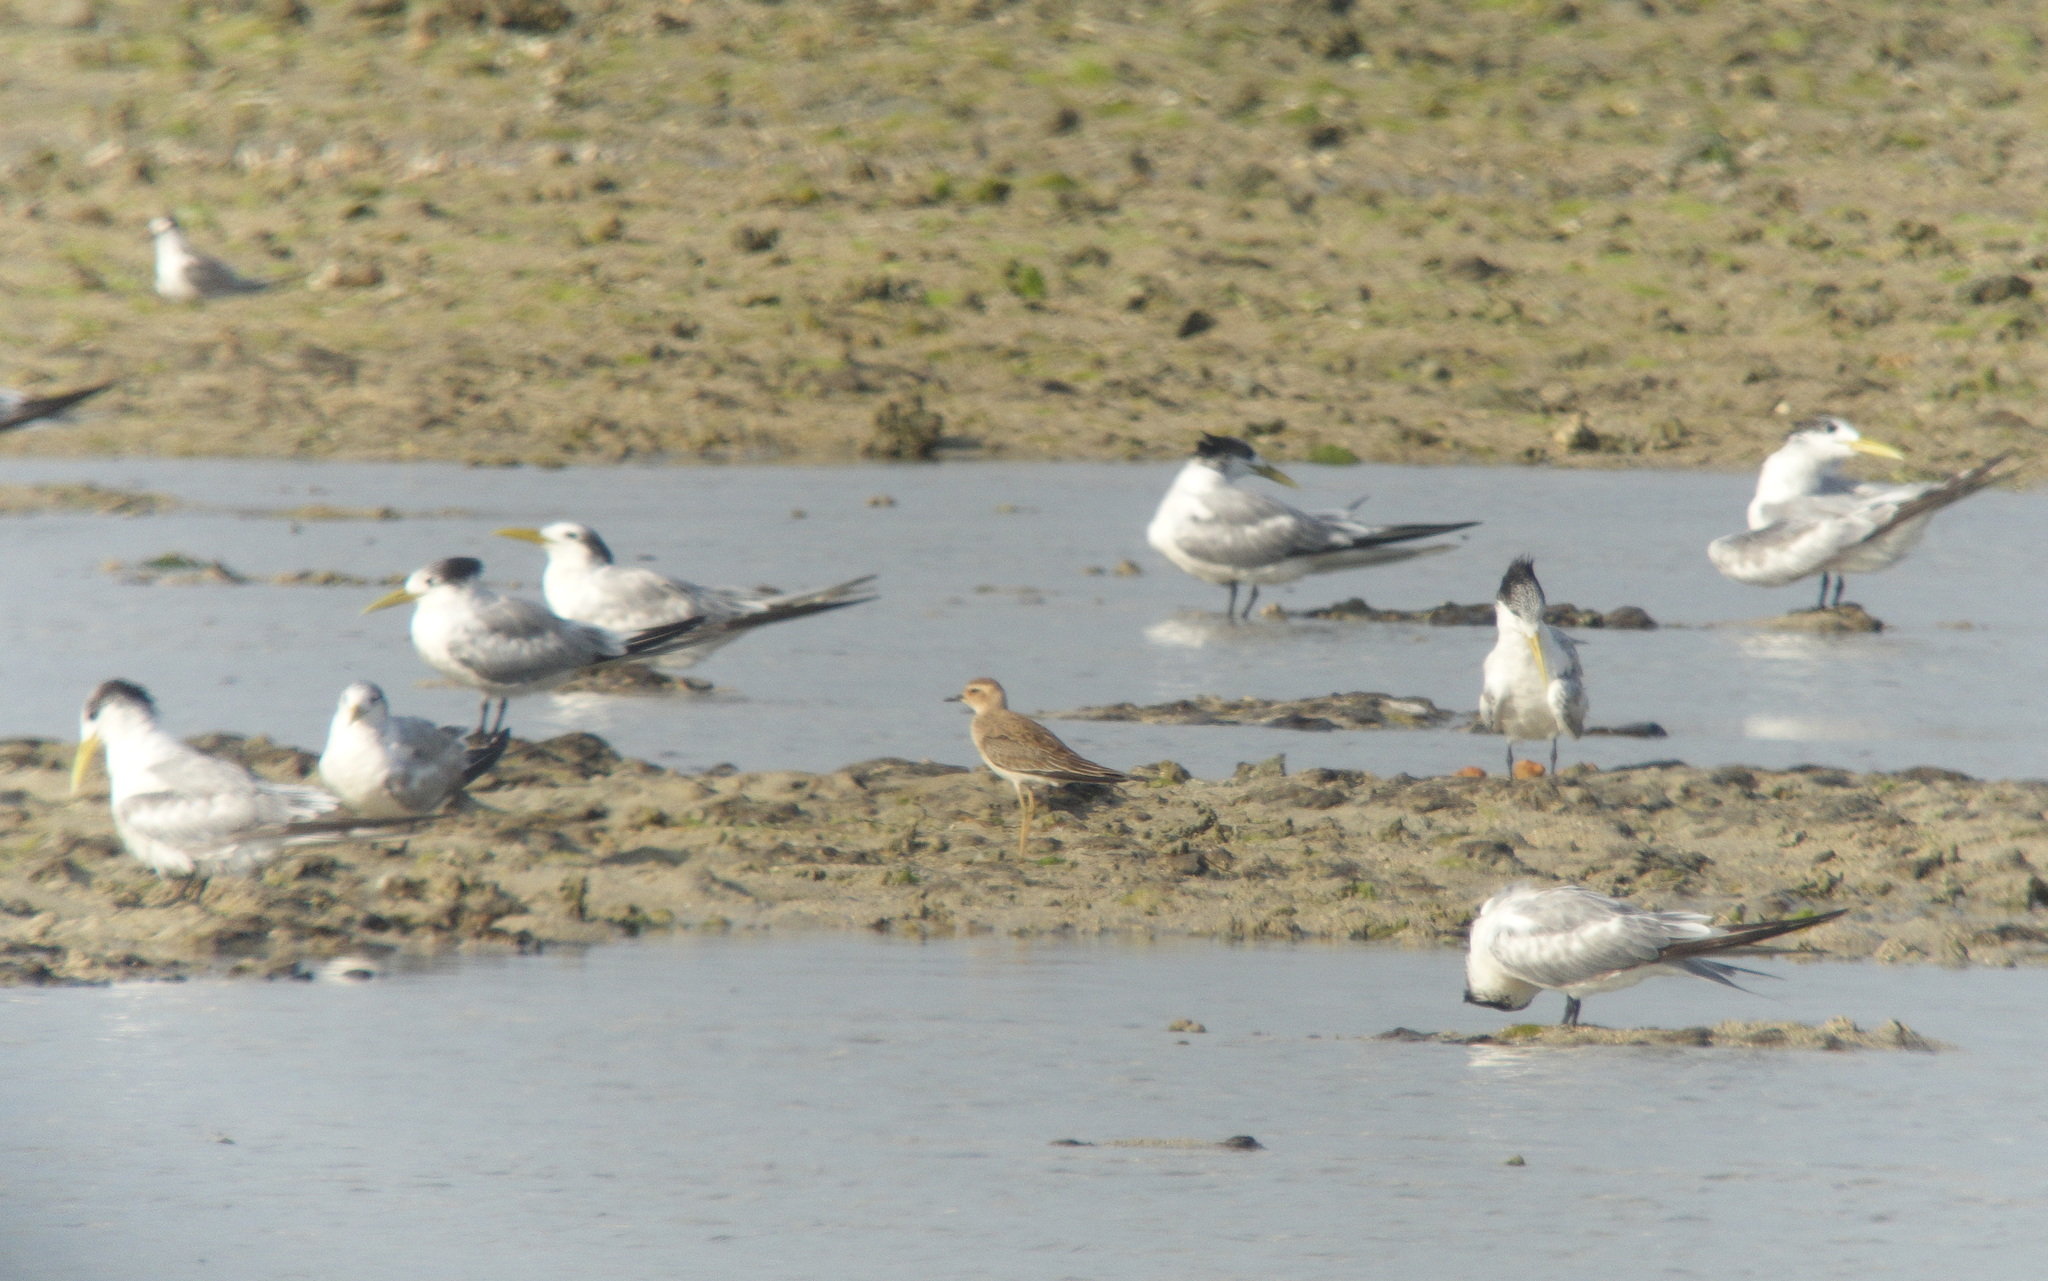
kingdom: Animalia
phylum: Chordata
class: Aves
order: Charadriiformes
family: Charadriidae
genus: Charadrius
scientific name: Charadrius veredus
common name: Oriental plover
